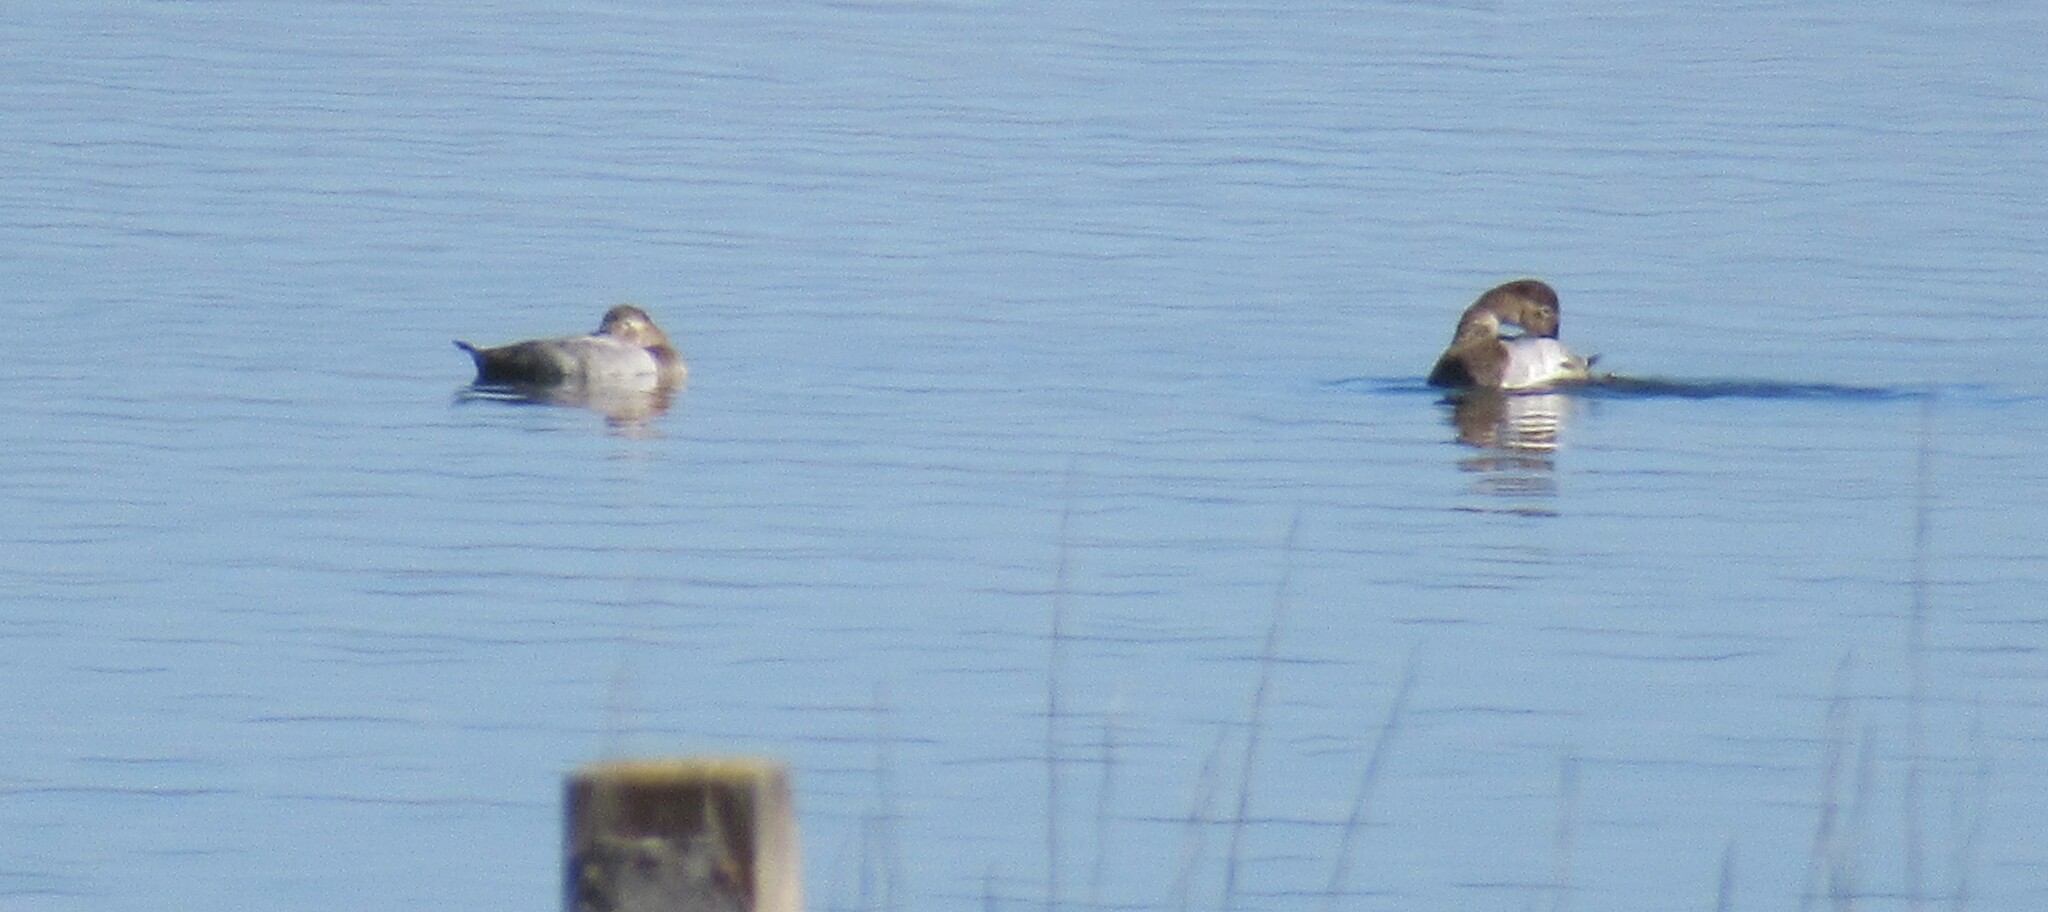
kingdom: Animalia
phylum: Chordata
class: Aves
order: Anseriformes
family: Anatidae
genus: Aythya
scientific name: Aythya valisineria
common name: Canvasback
